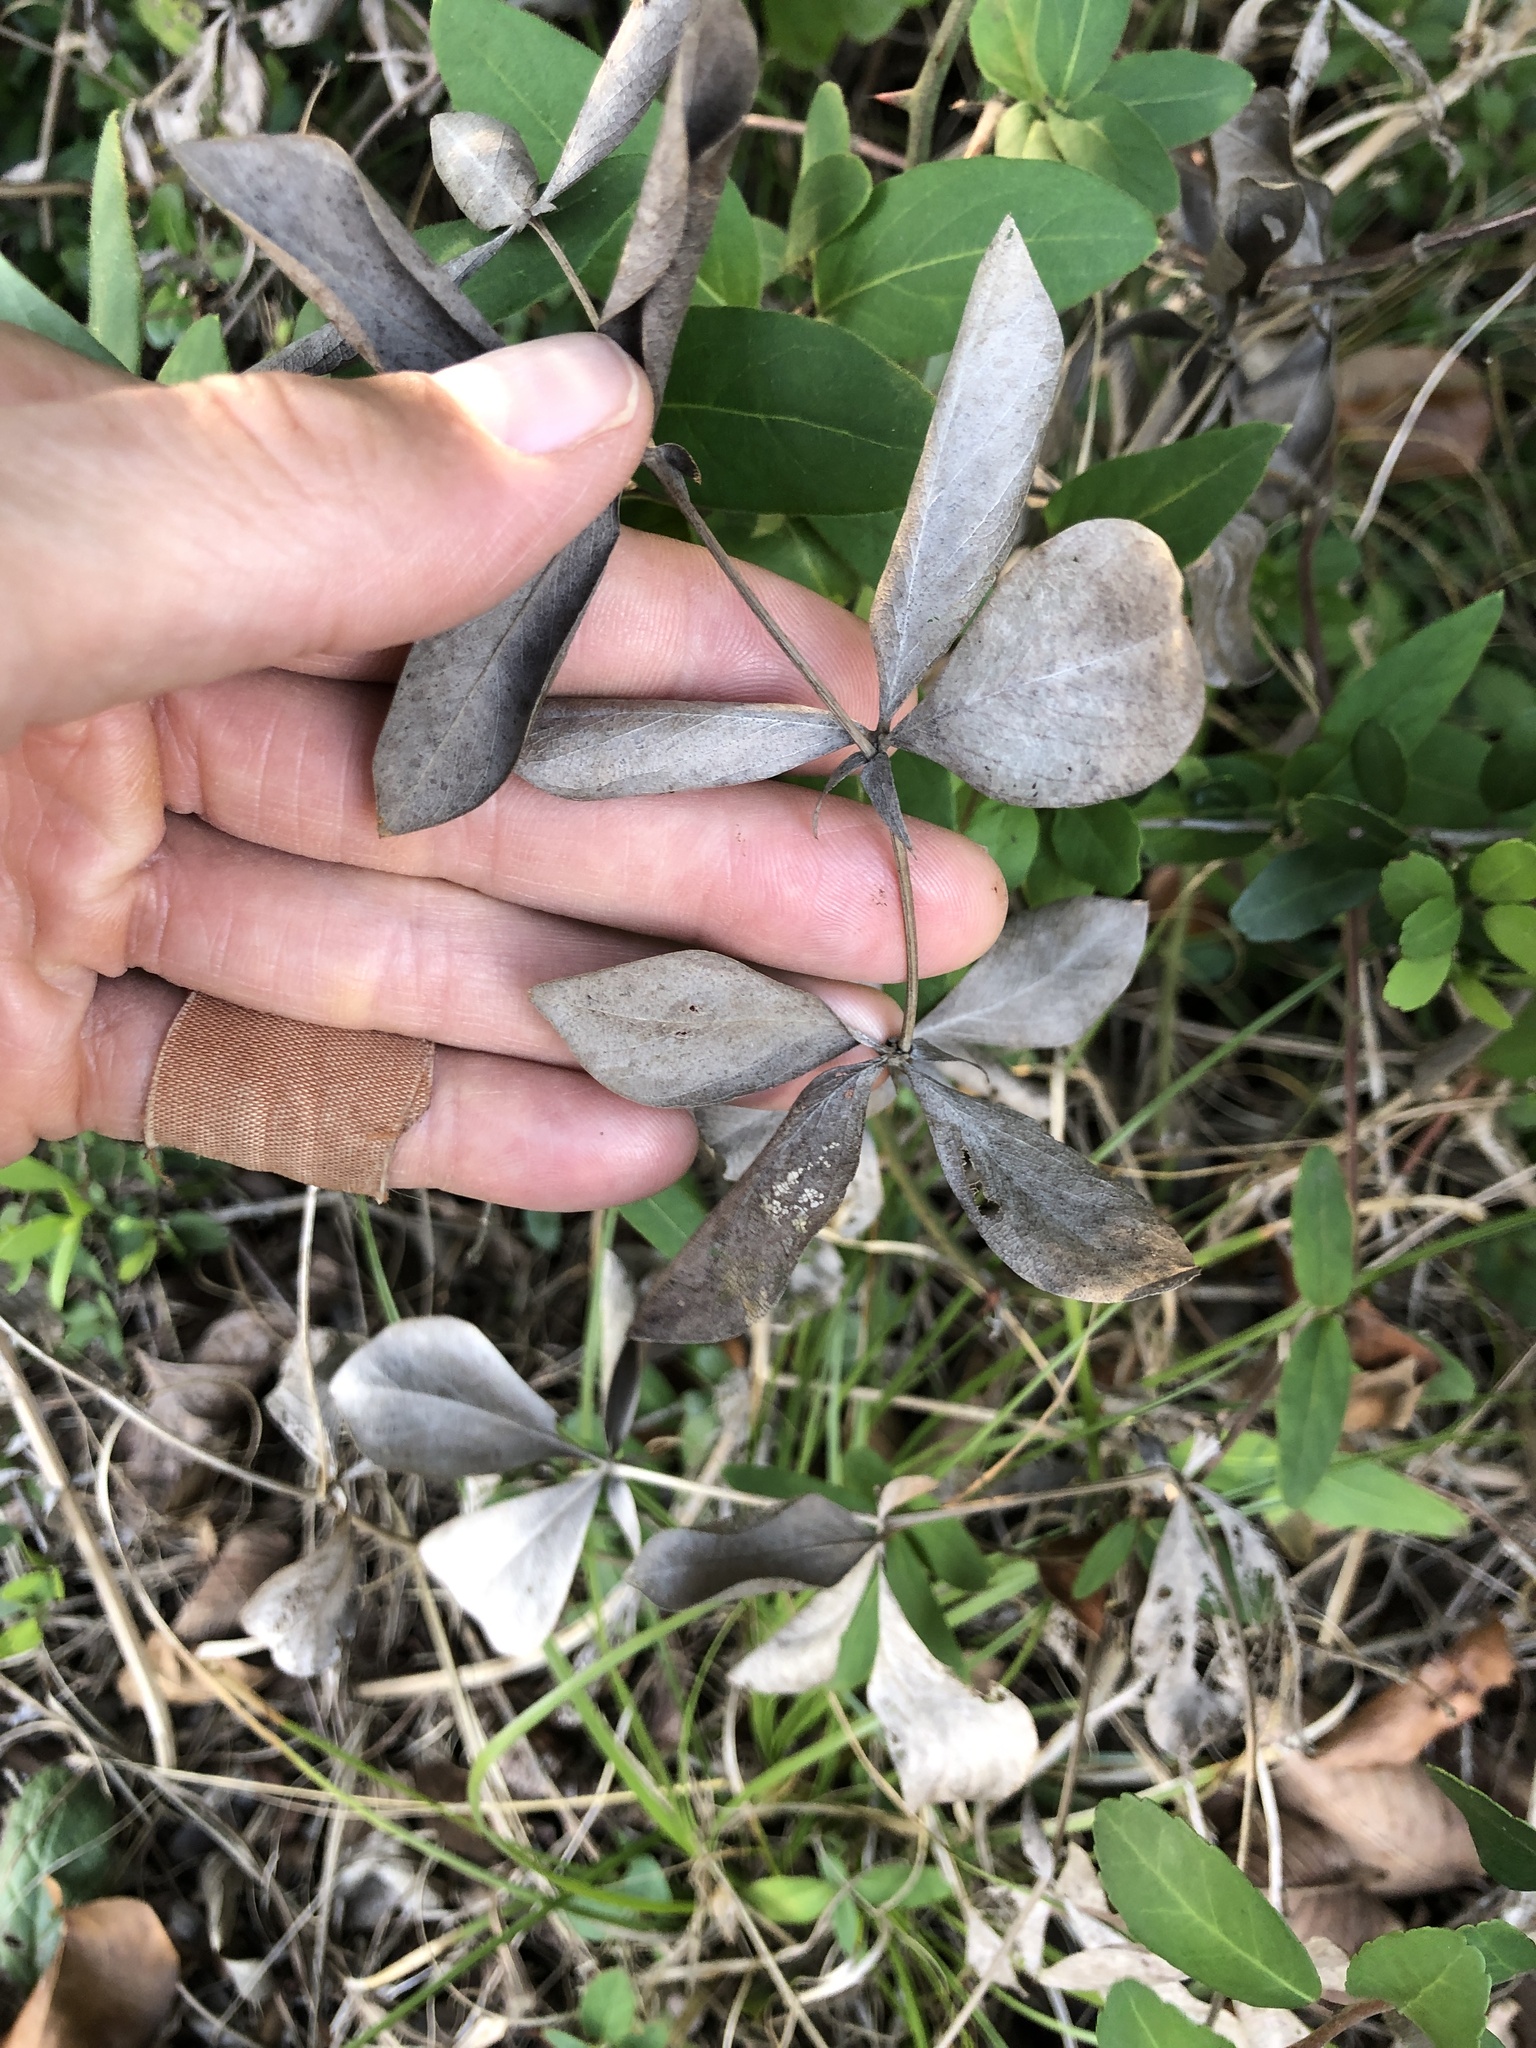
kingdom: Plantae
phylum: Tracheophyta
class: Magnoliopsida
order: Fabales
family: Fabaceae
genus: Baptisia
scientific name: Baptisia bracteata
